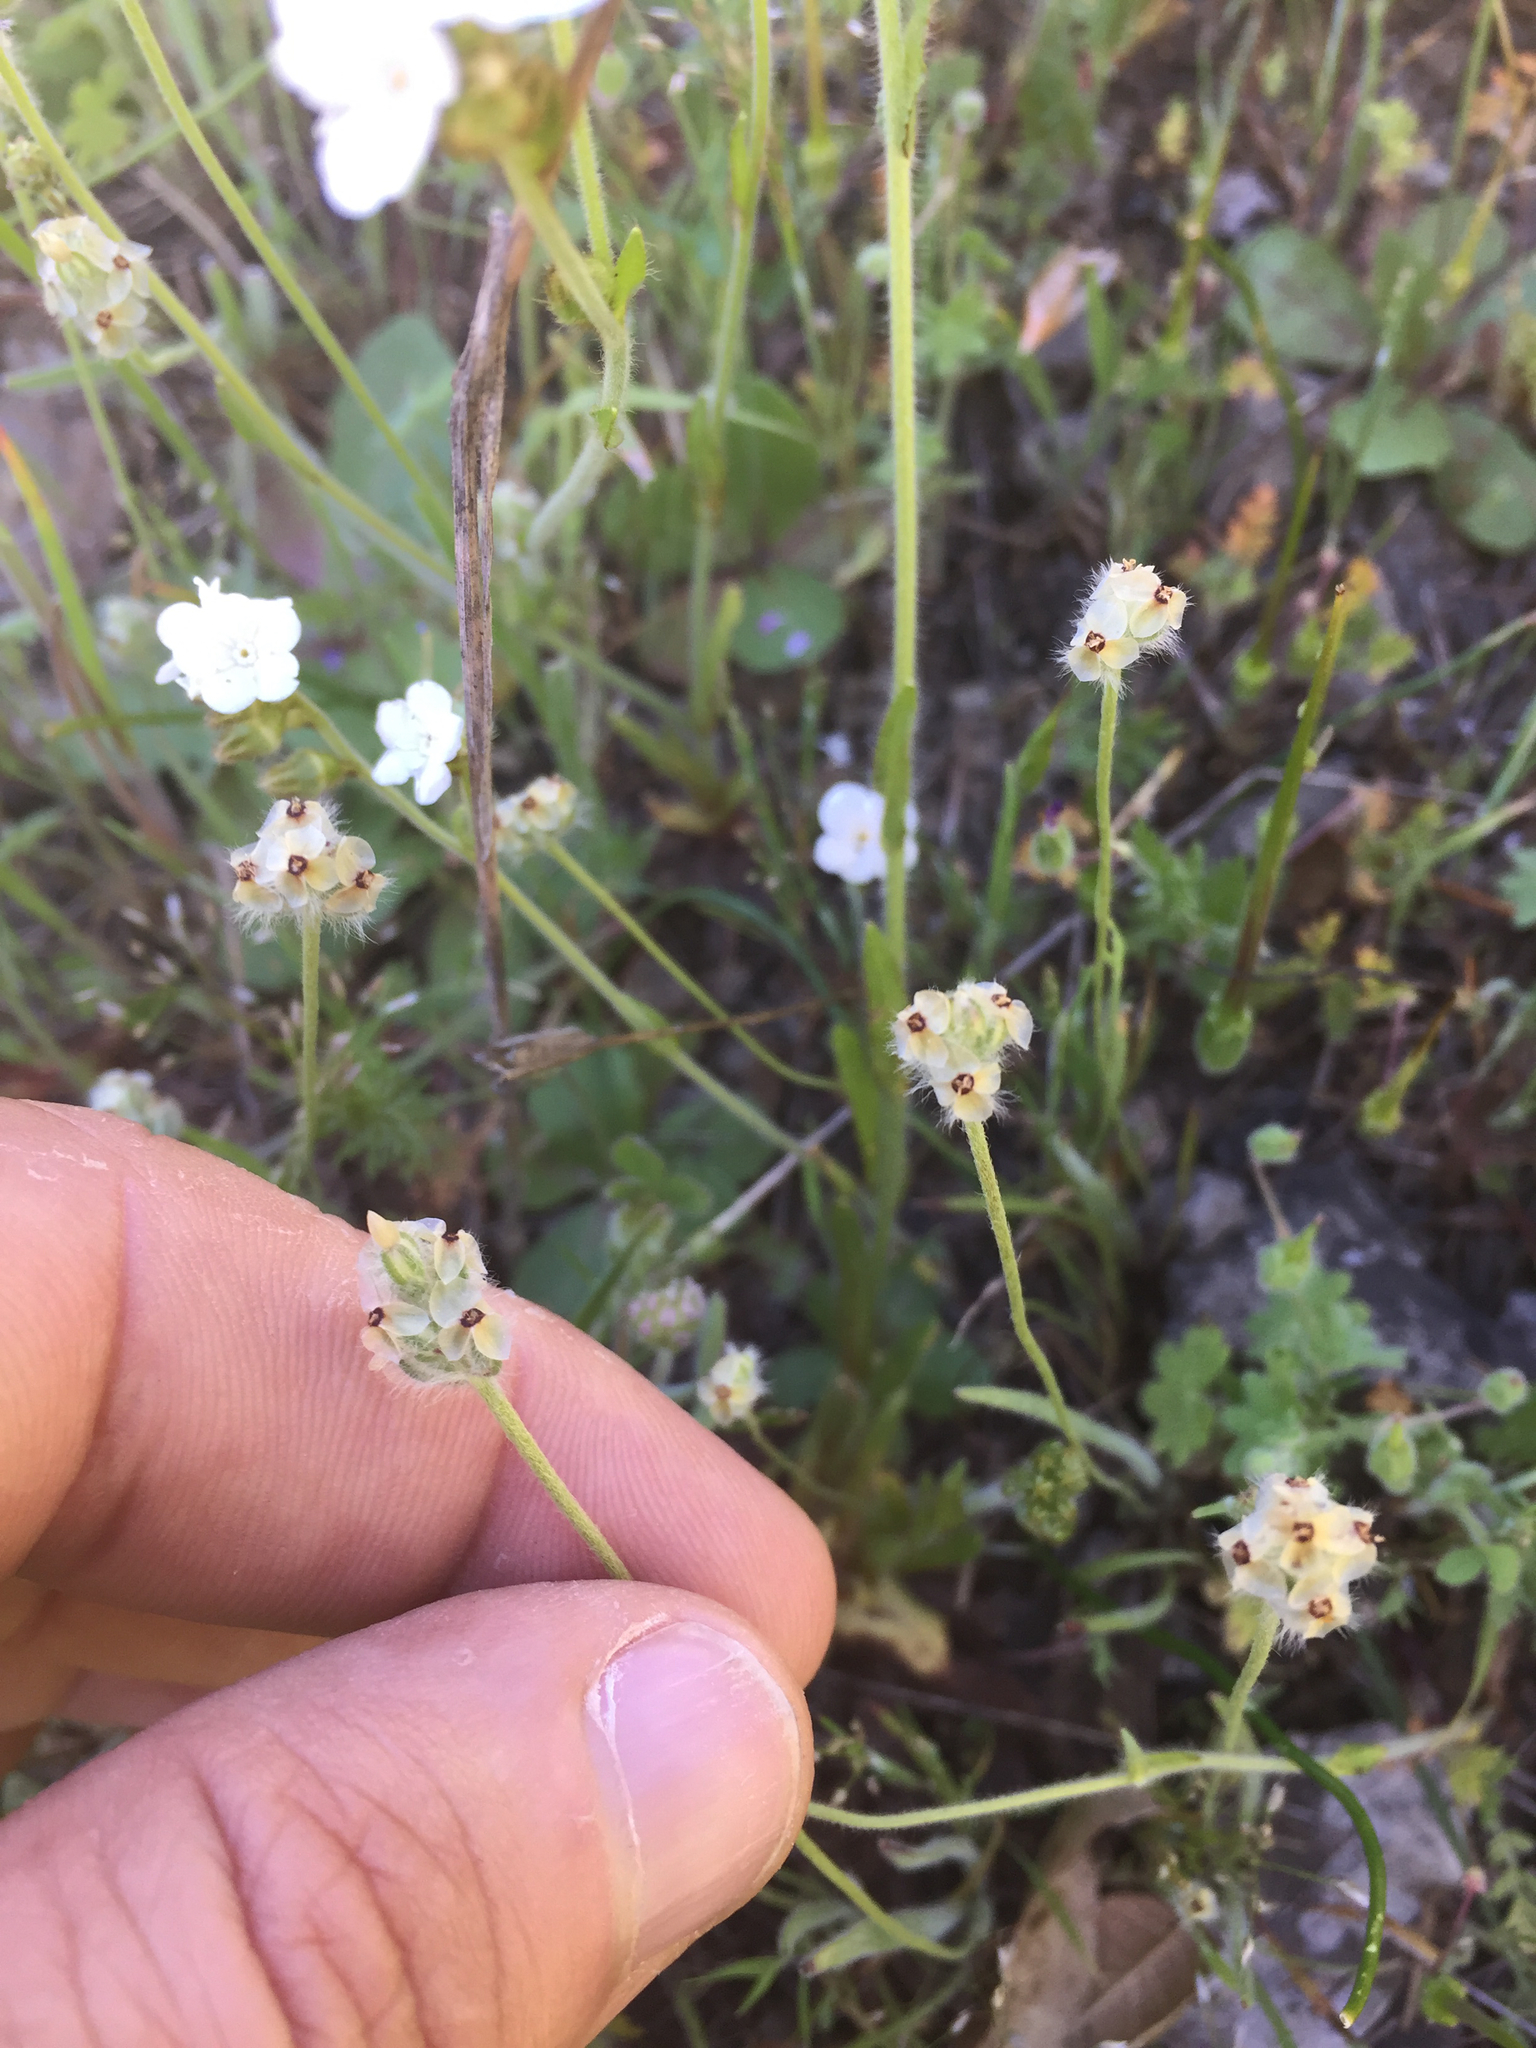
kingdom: Plantae
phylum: Tracheophyta
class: Magnoliopsida
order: Lamiales
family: Plantaginaceae
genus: Plantago
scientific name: Plantago erecta
